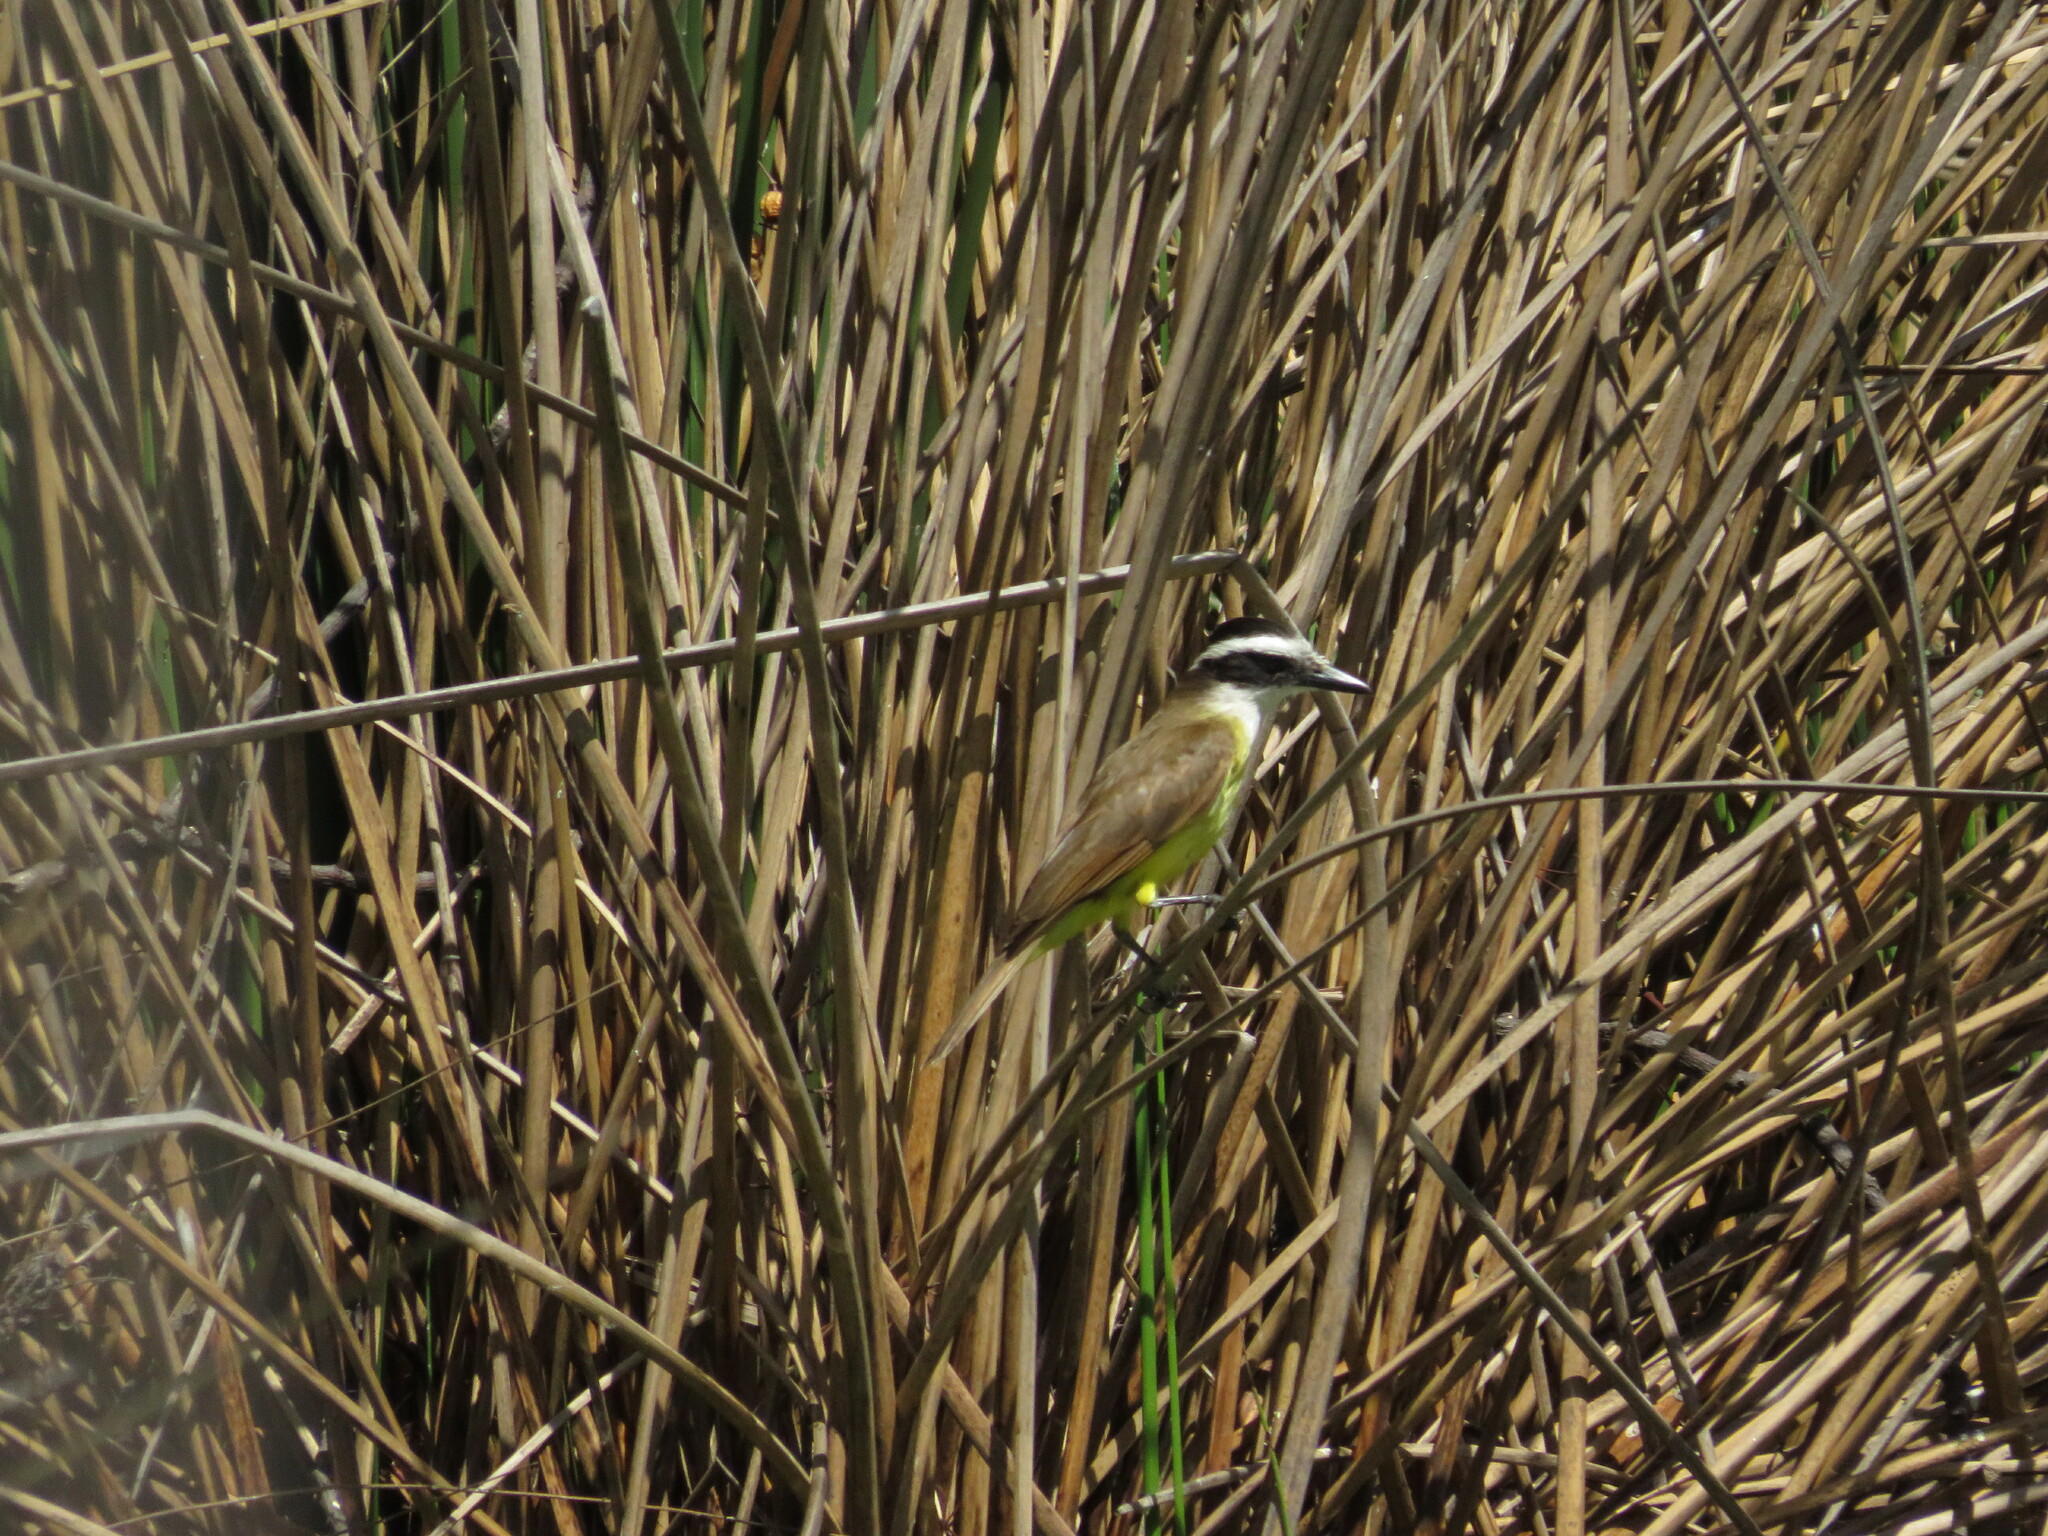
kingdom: Animalia
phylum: Chordata
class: Aves
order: Passeriformes
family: Tyrannidae
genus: Pitangus
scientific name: Pitangus sulphuratus
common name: Great kiskadee
